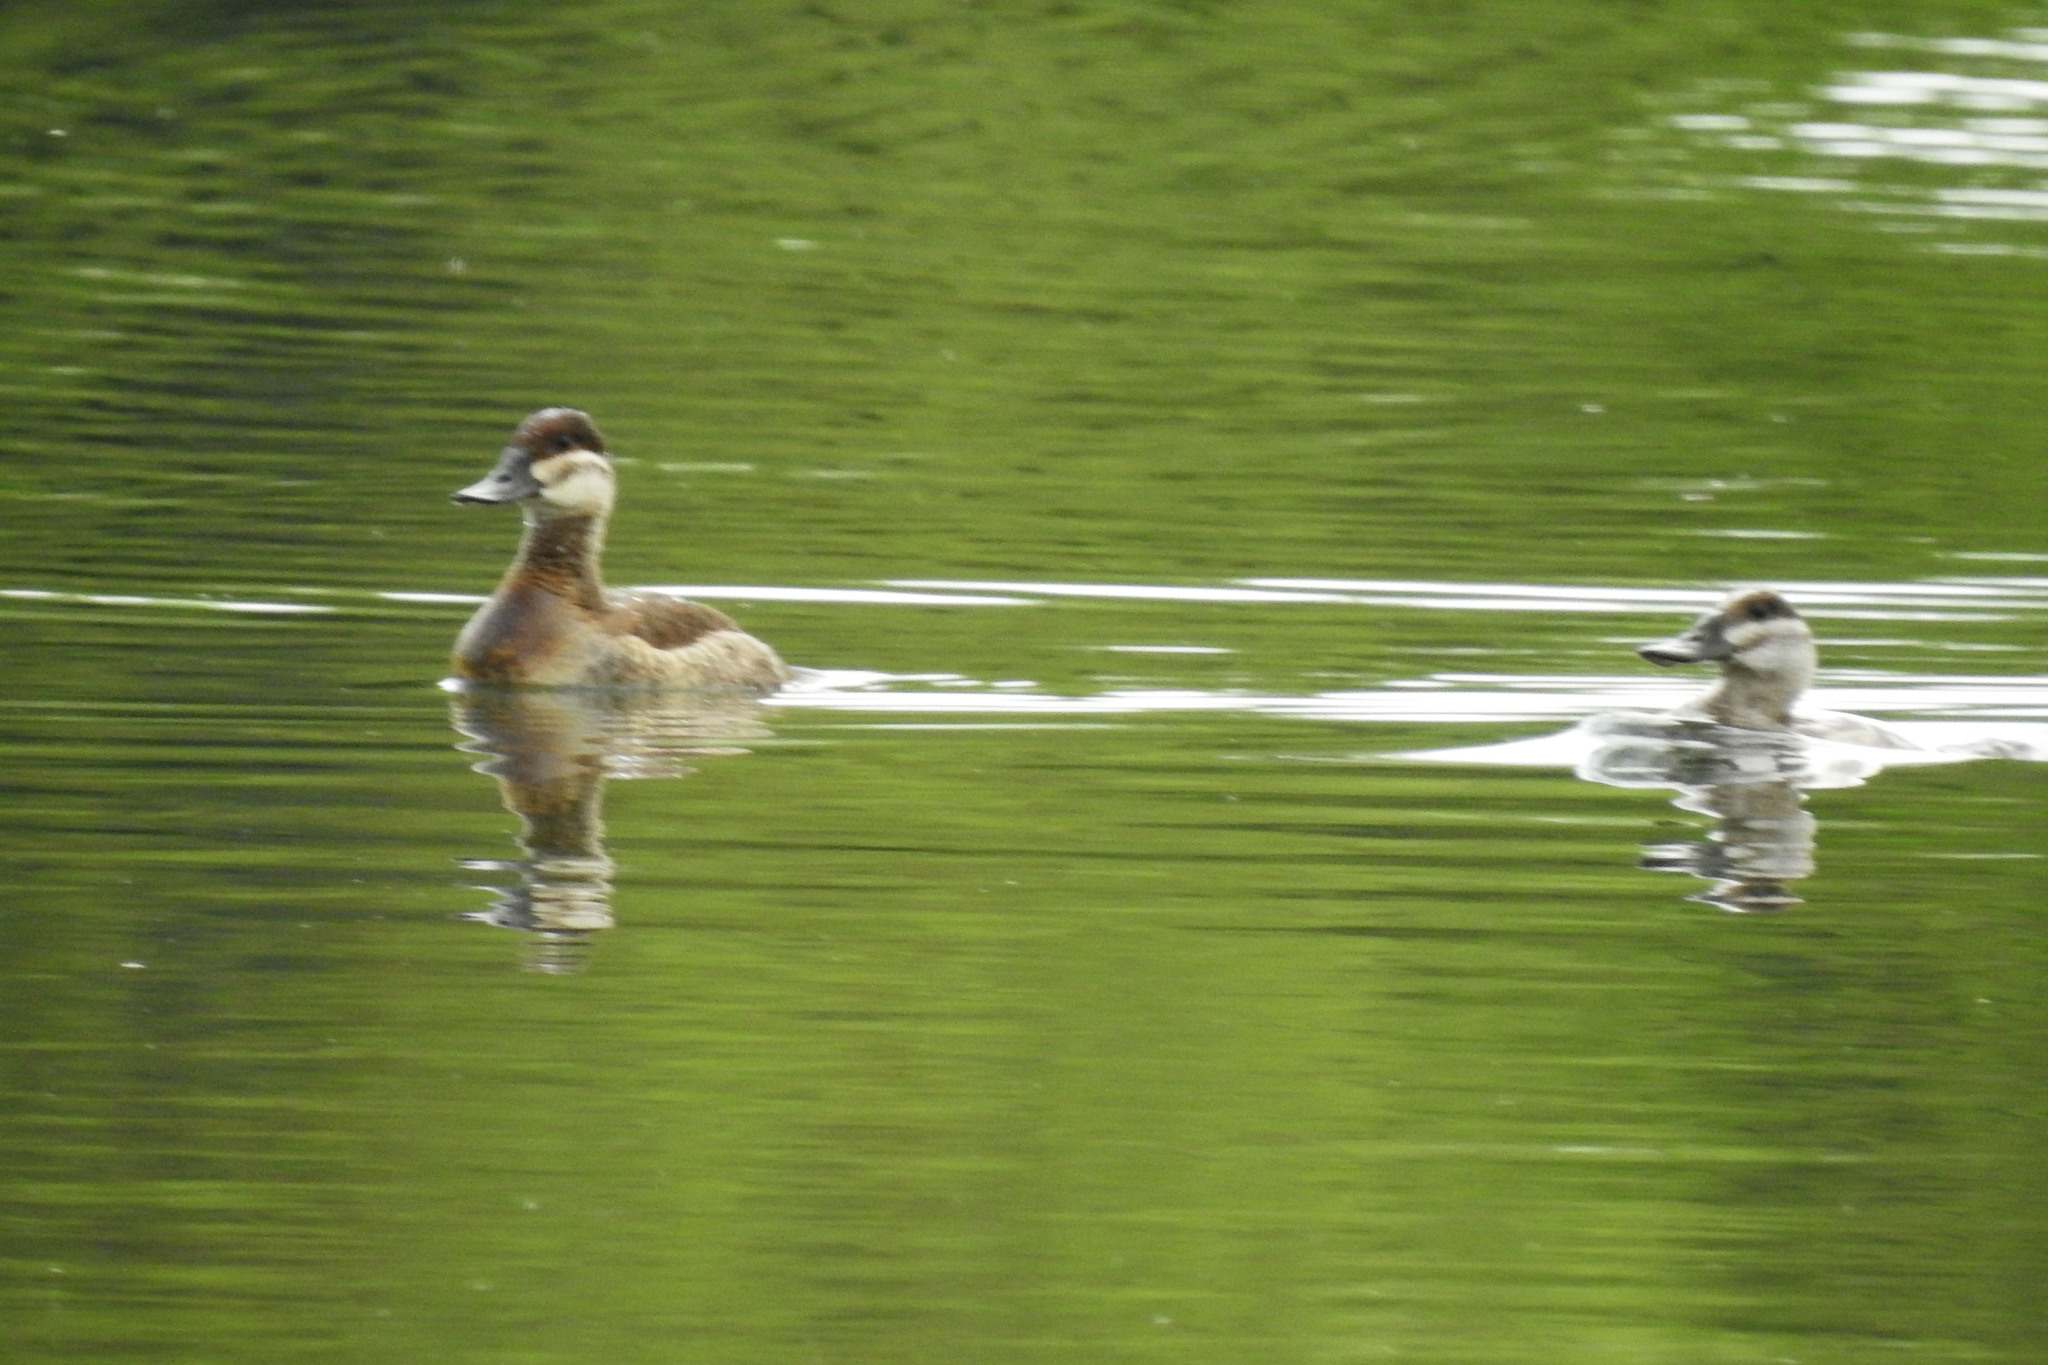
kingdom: Animalia
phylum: Chordata
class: Aves
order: Anseriformes
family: Anatidae
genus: Oxyura
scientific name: Oxyura jamaicensis
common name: Ruddy duck
